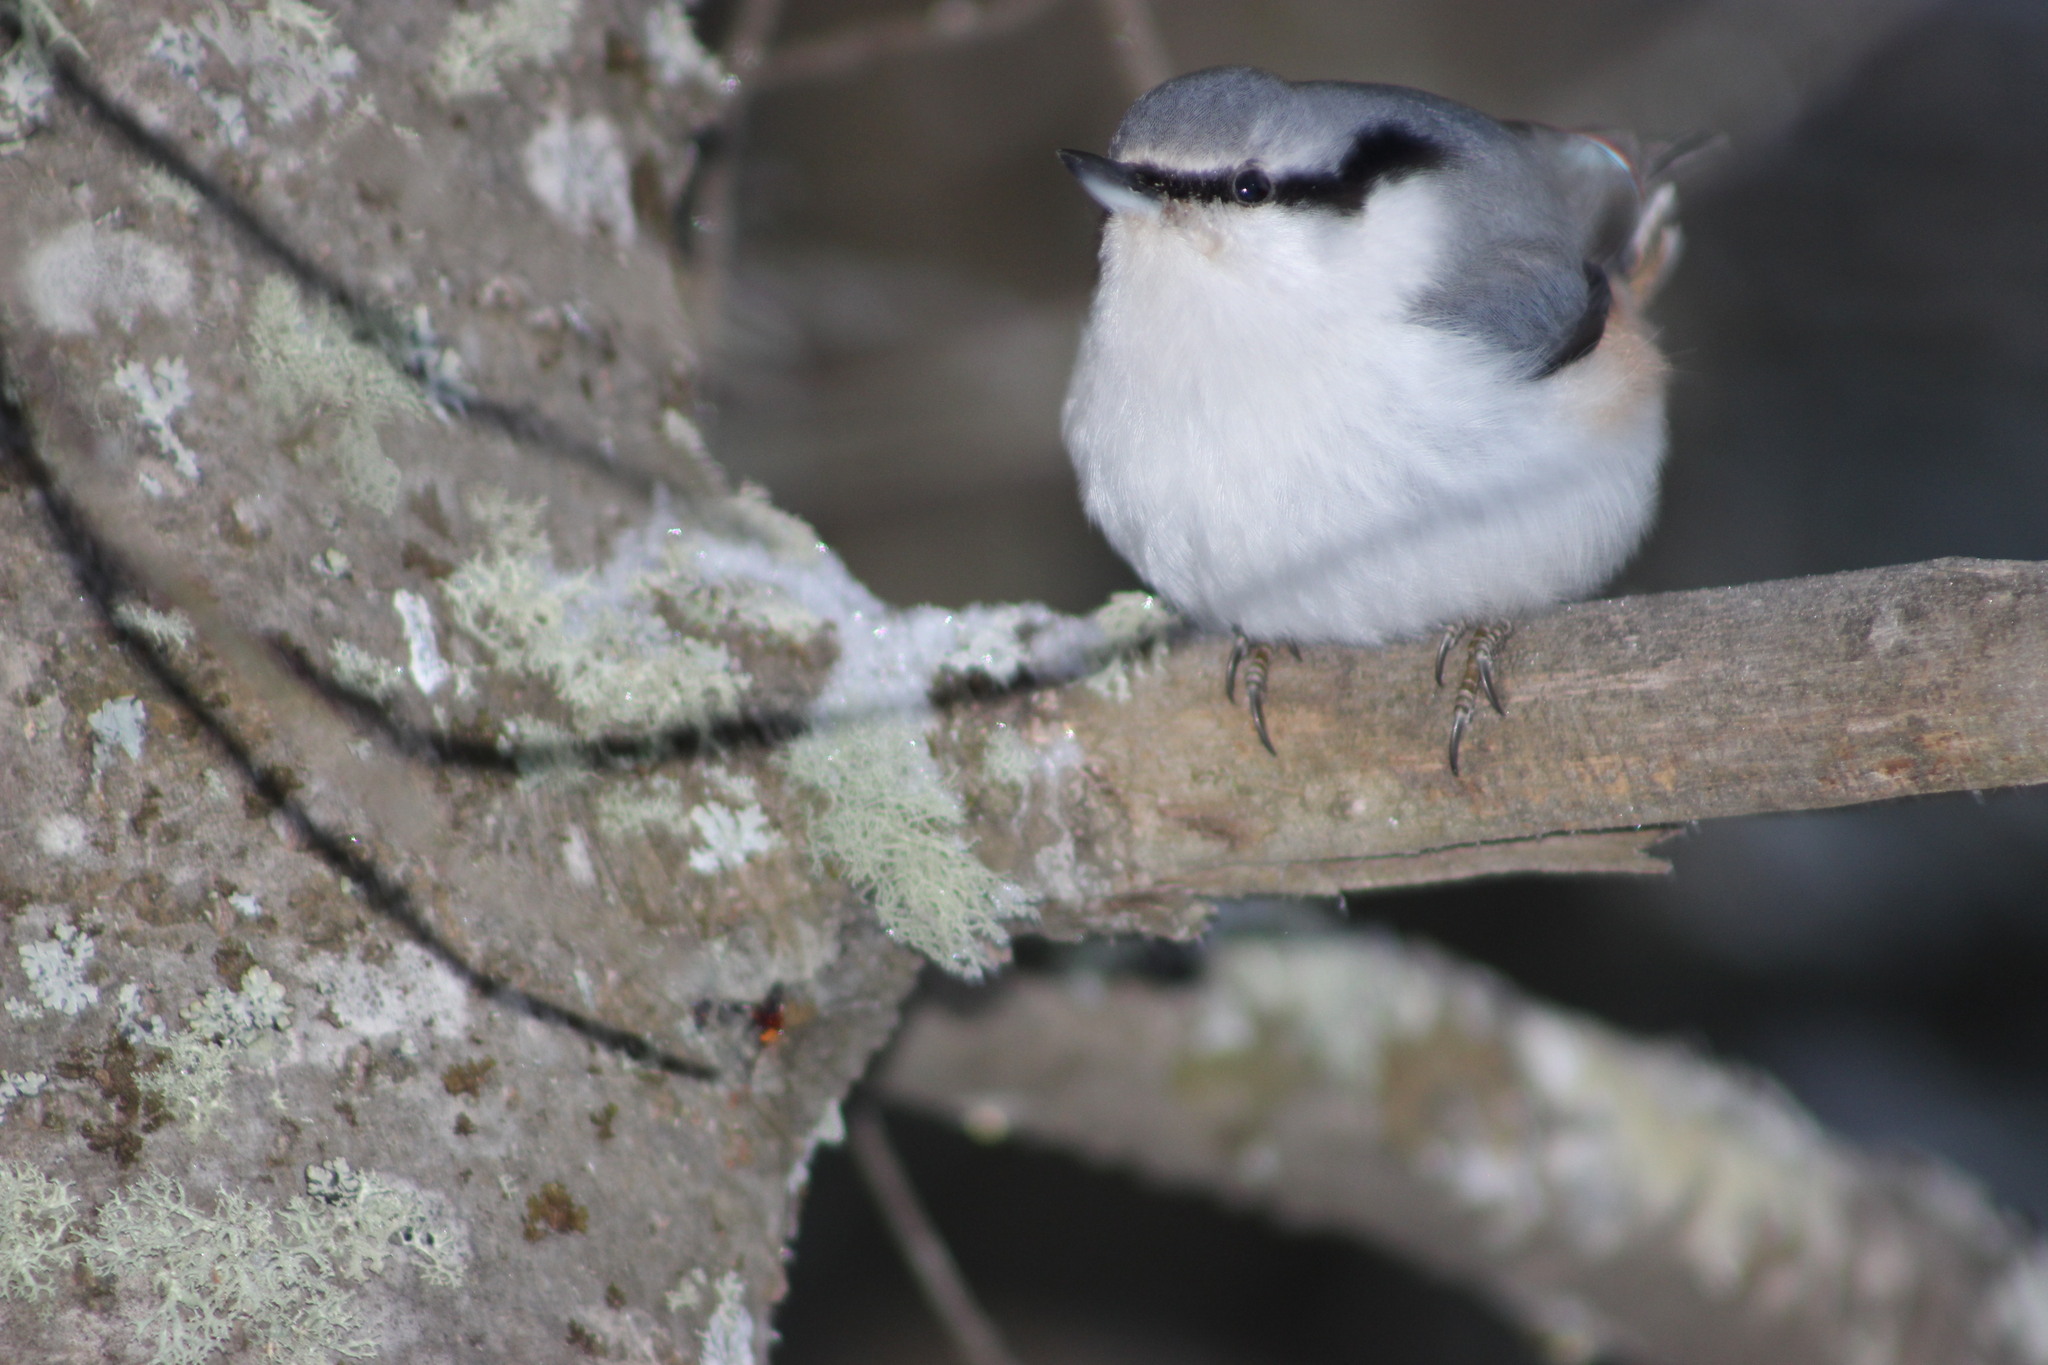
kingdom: Animalia
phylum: Chordata
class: Aves
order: Passeriformes
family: Sittidae
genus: Sitta
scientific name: Sitta europaea
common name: Eurasian nuthatch
